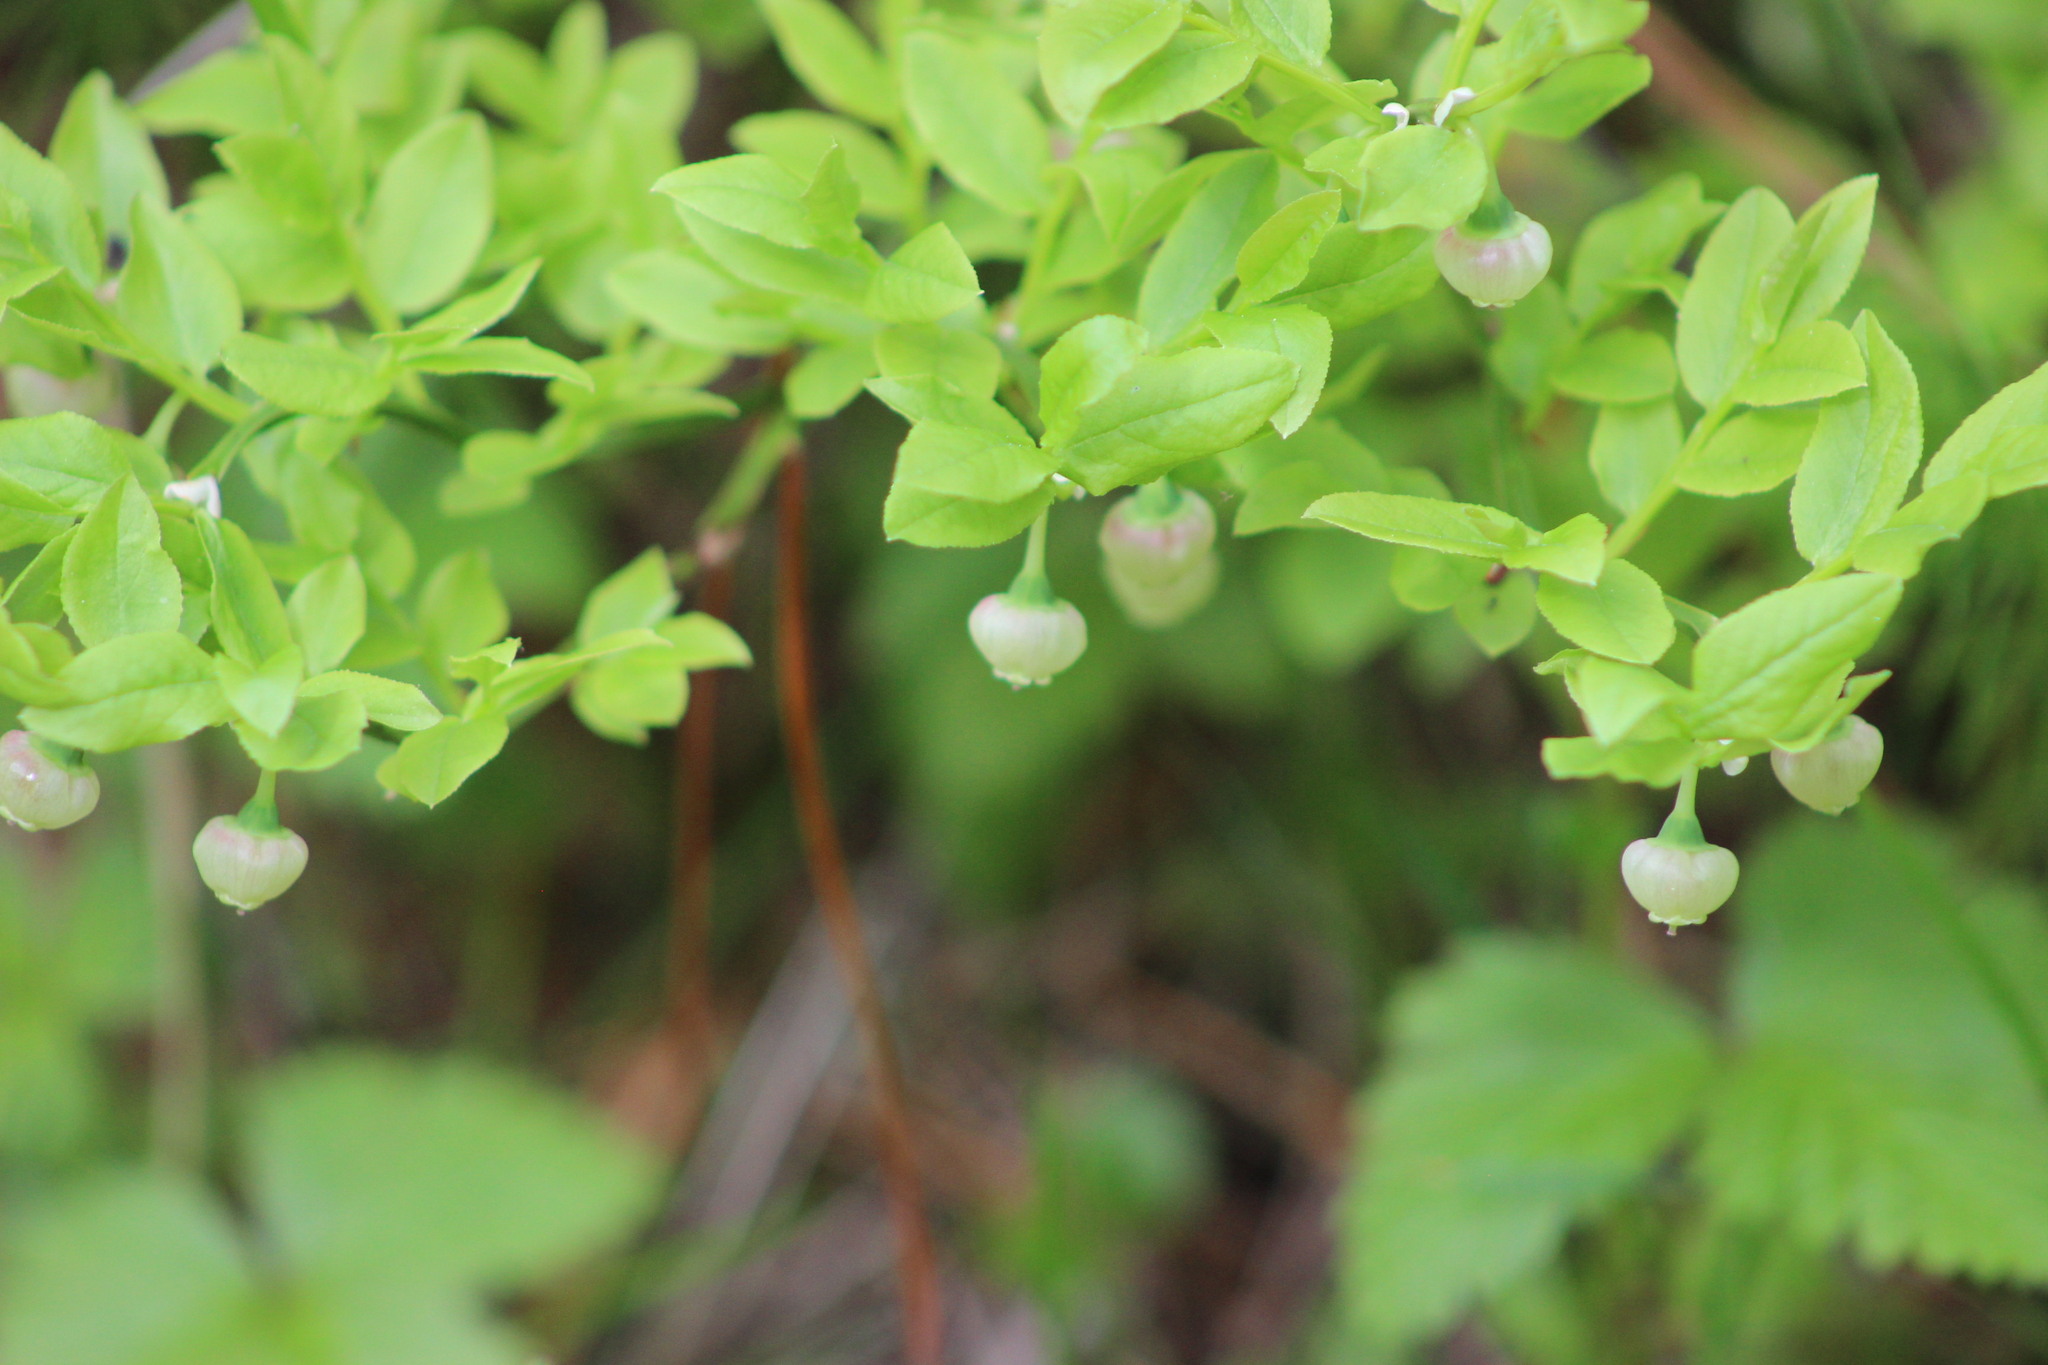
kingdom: Plantae
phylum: Tracheophyta
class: Magnoliopsida
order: Ericales
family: Ericaceae
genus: Vaccinium
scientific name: Vaccinium myrtillus
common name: Bilberry
